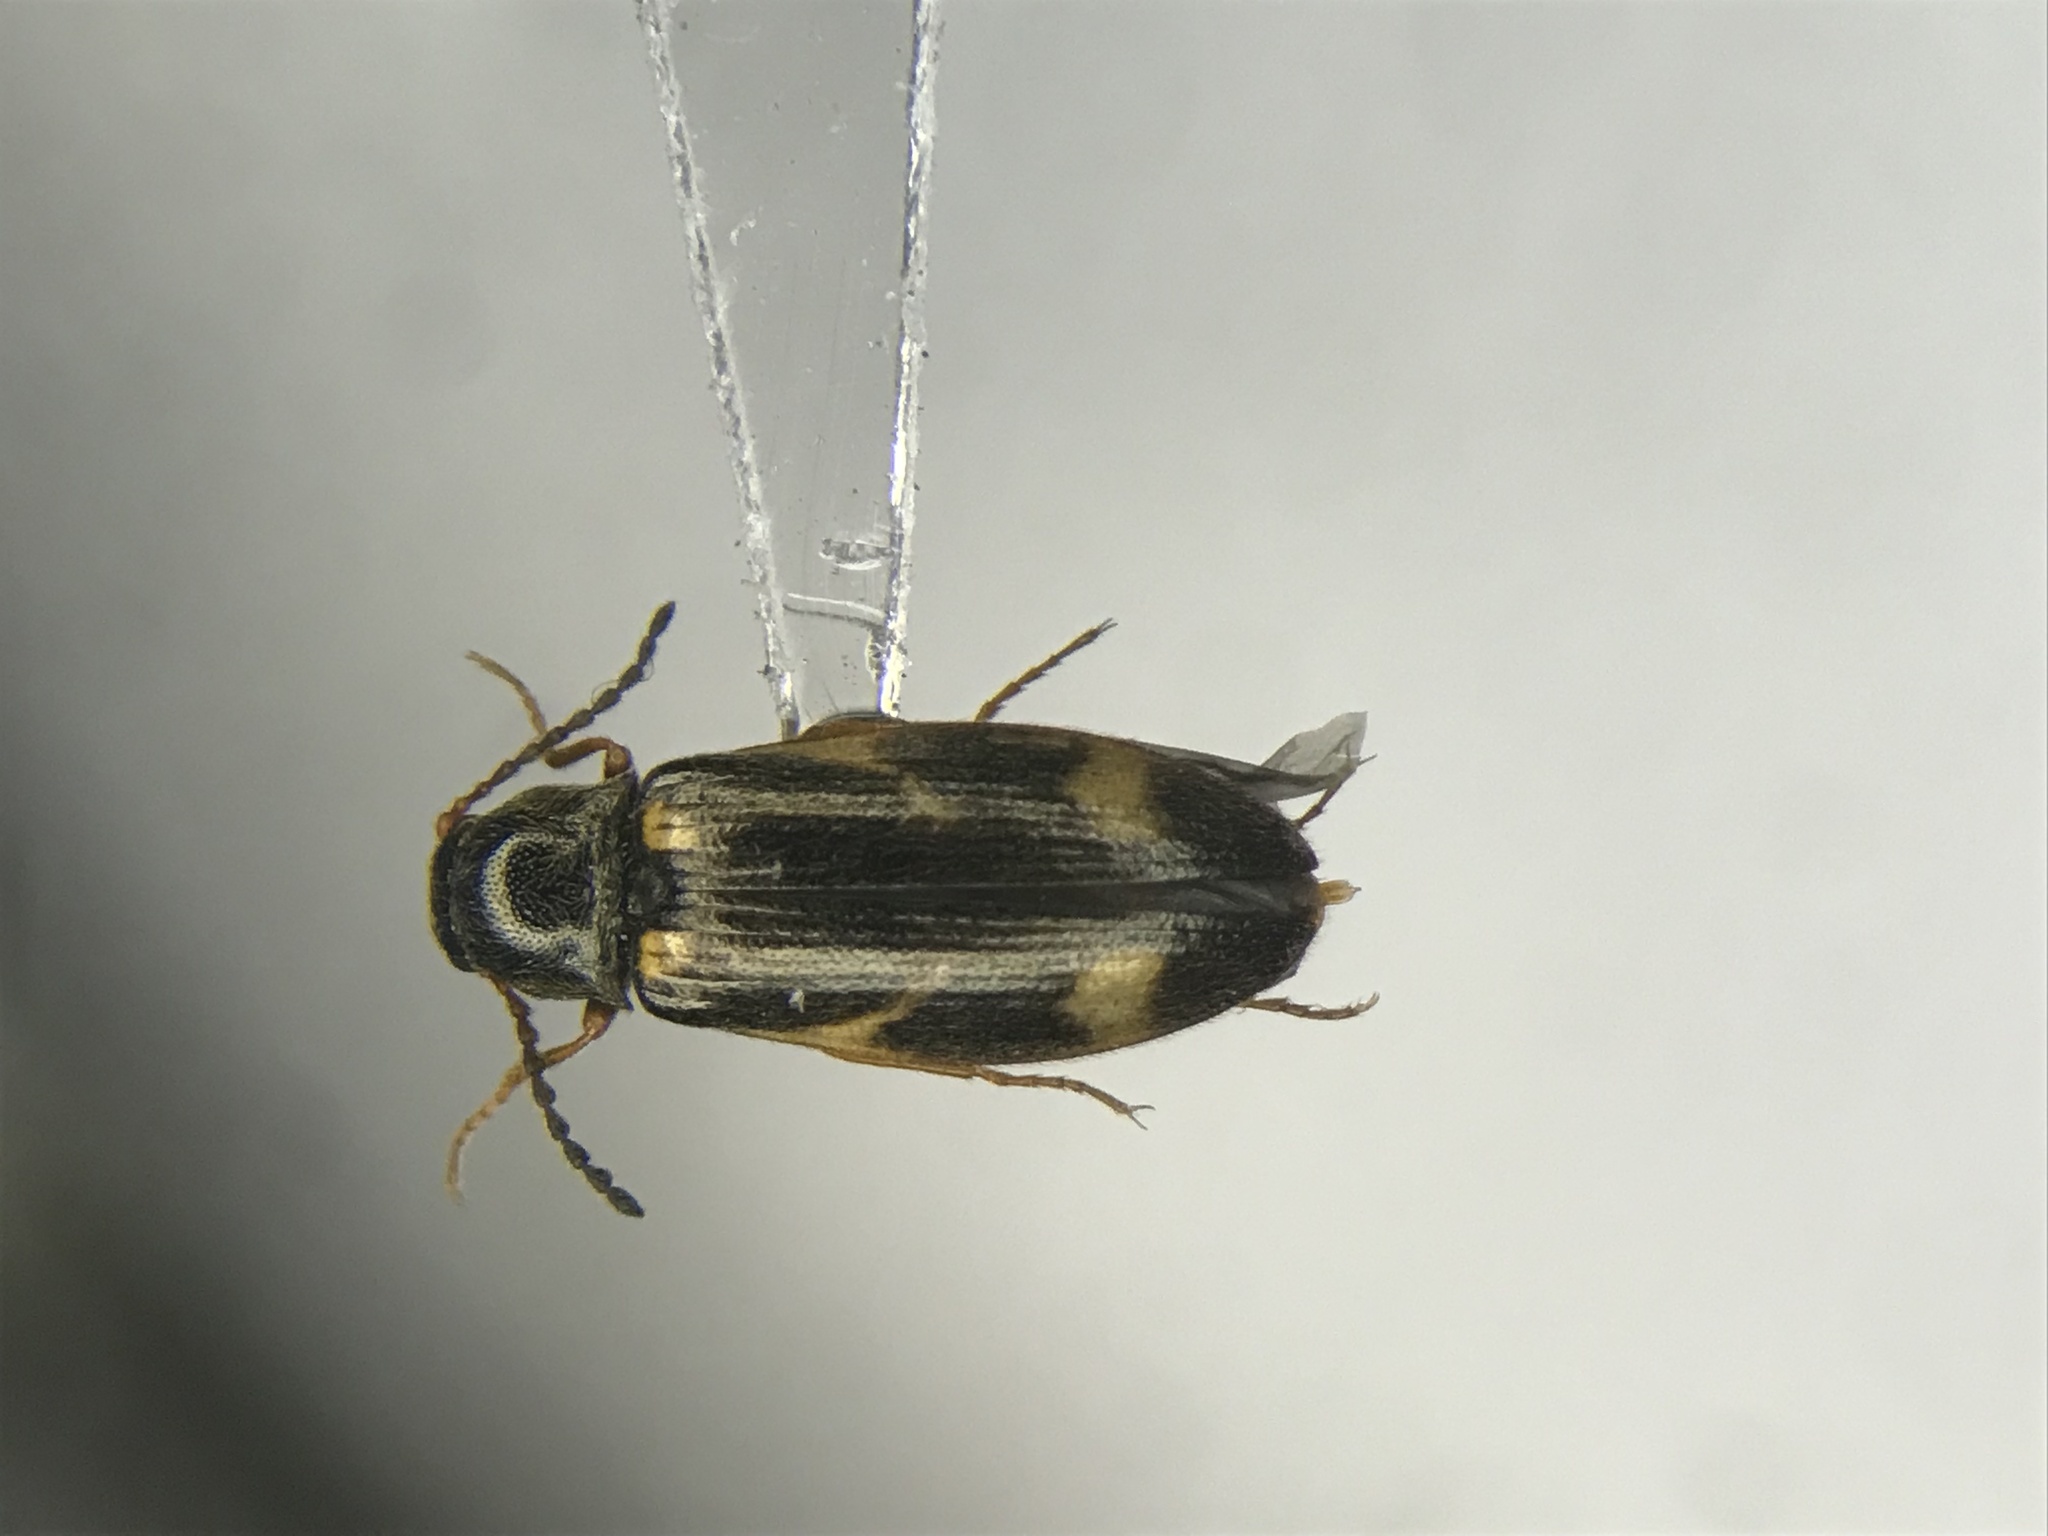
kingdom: Animalia
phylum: Arthropoda
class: Insecta
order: Coleoptera
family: Elateridae
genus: Eanus
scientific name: Eanus maculipennis
